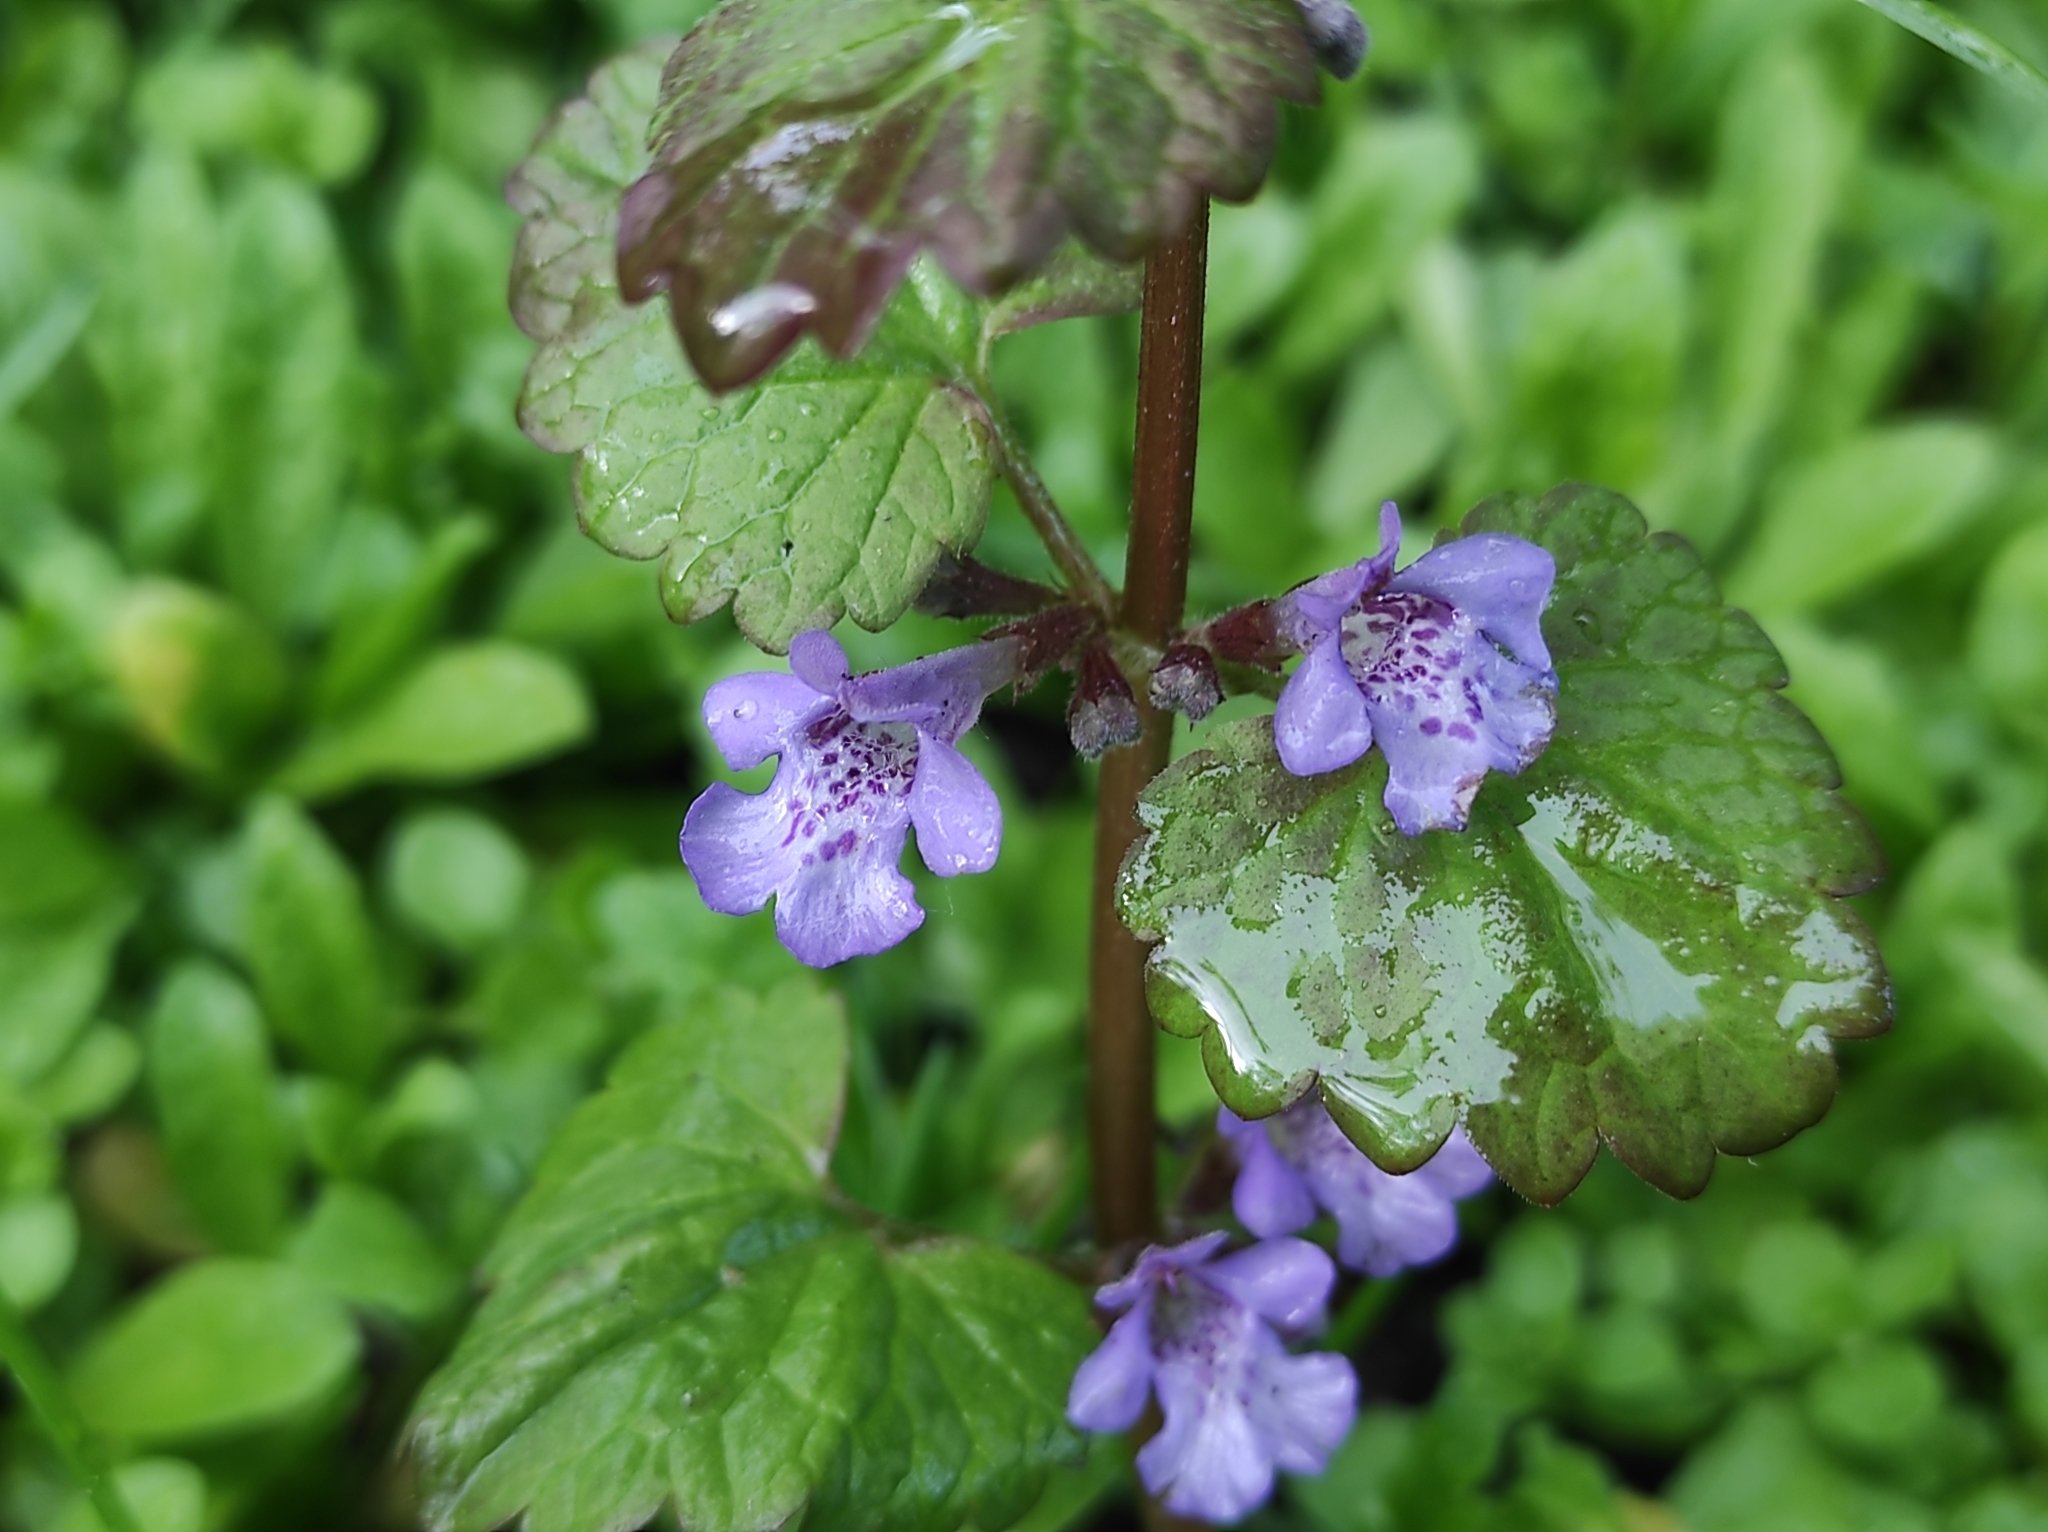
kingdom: Plantae
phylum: Tracheophyta
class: Magnoliopsida
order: Lamiales
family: Lamiaceae
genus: Glechoma
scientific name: Glechoma hederacea
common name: Ground ivy
